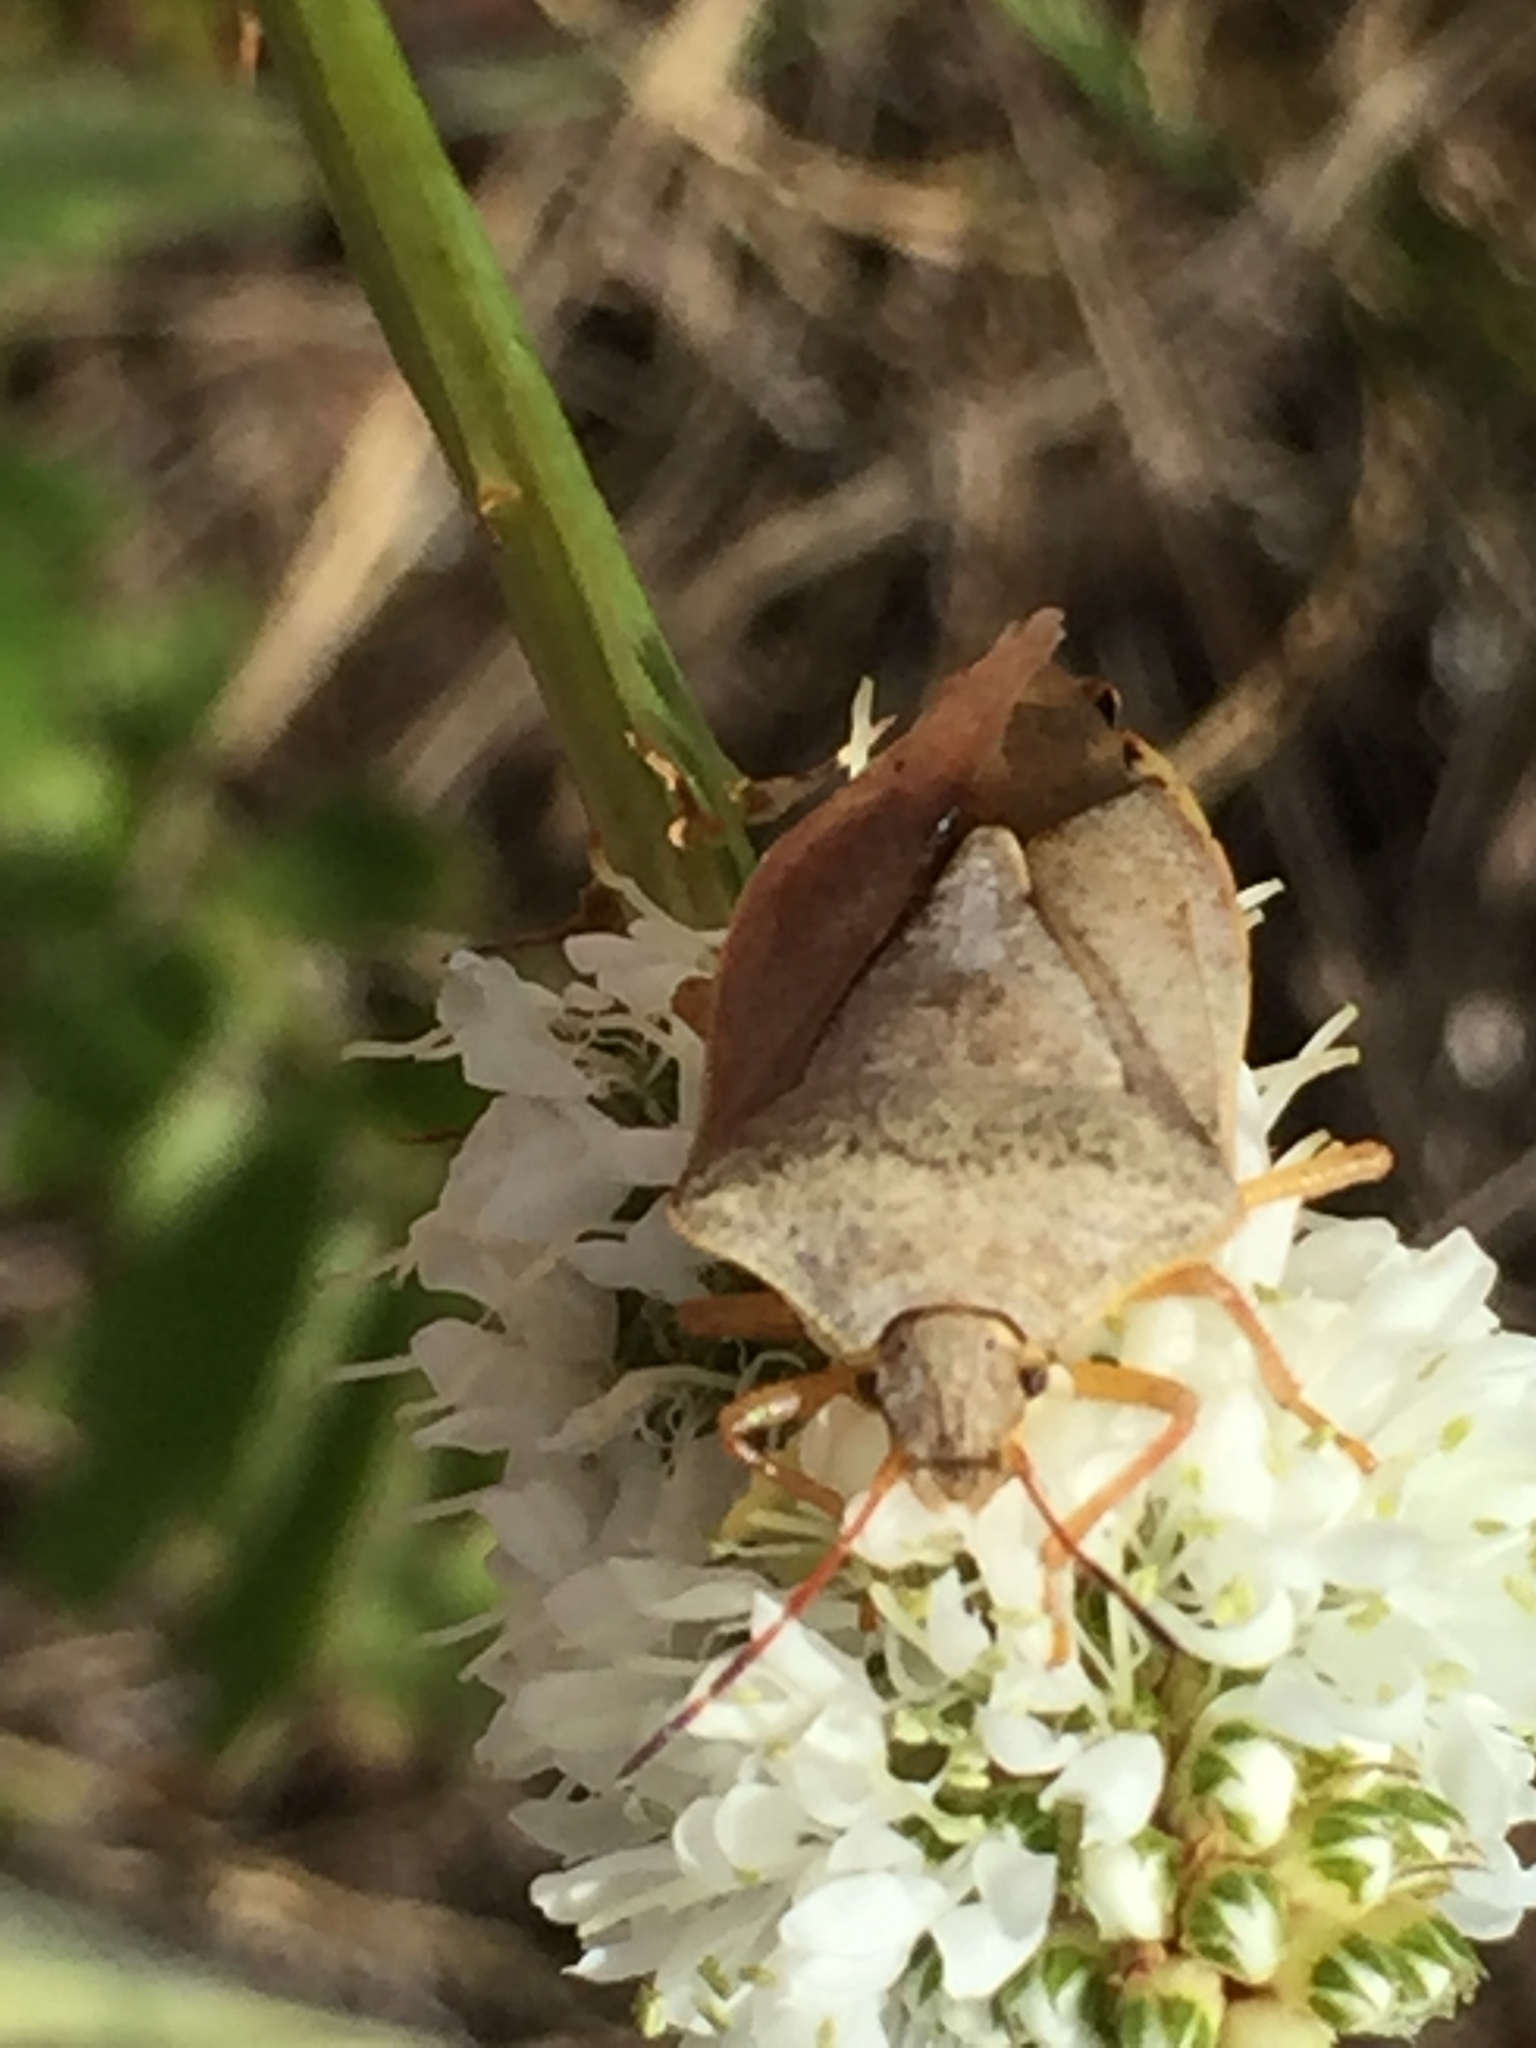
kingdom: Animalia
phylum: Arthropoda
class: Insecta
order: Hemiptera
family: Pentatomidae
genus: Euschistus
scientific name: Euschistus servus
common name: Brown stink bug
